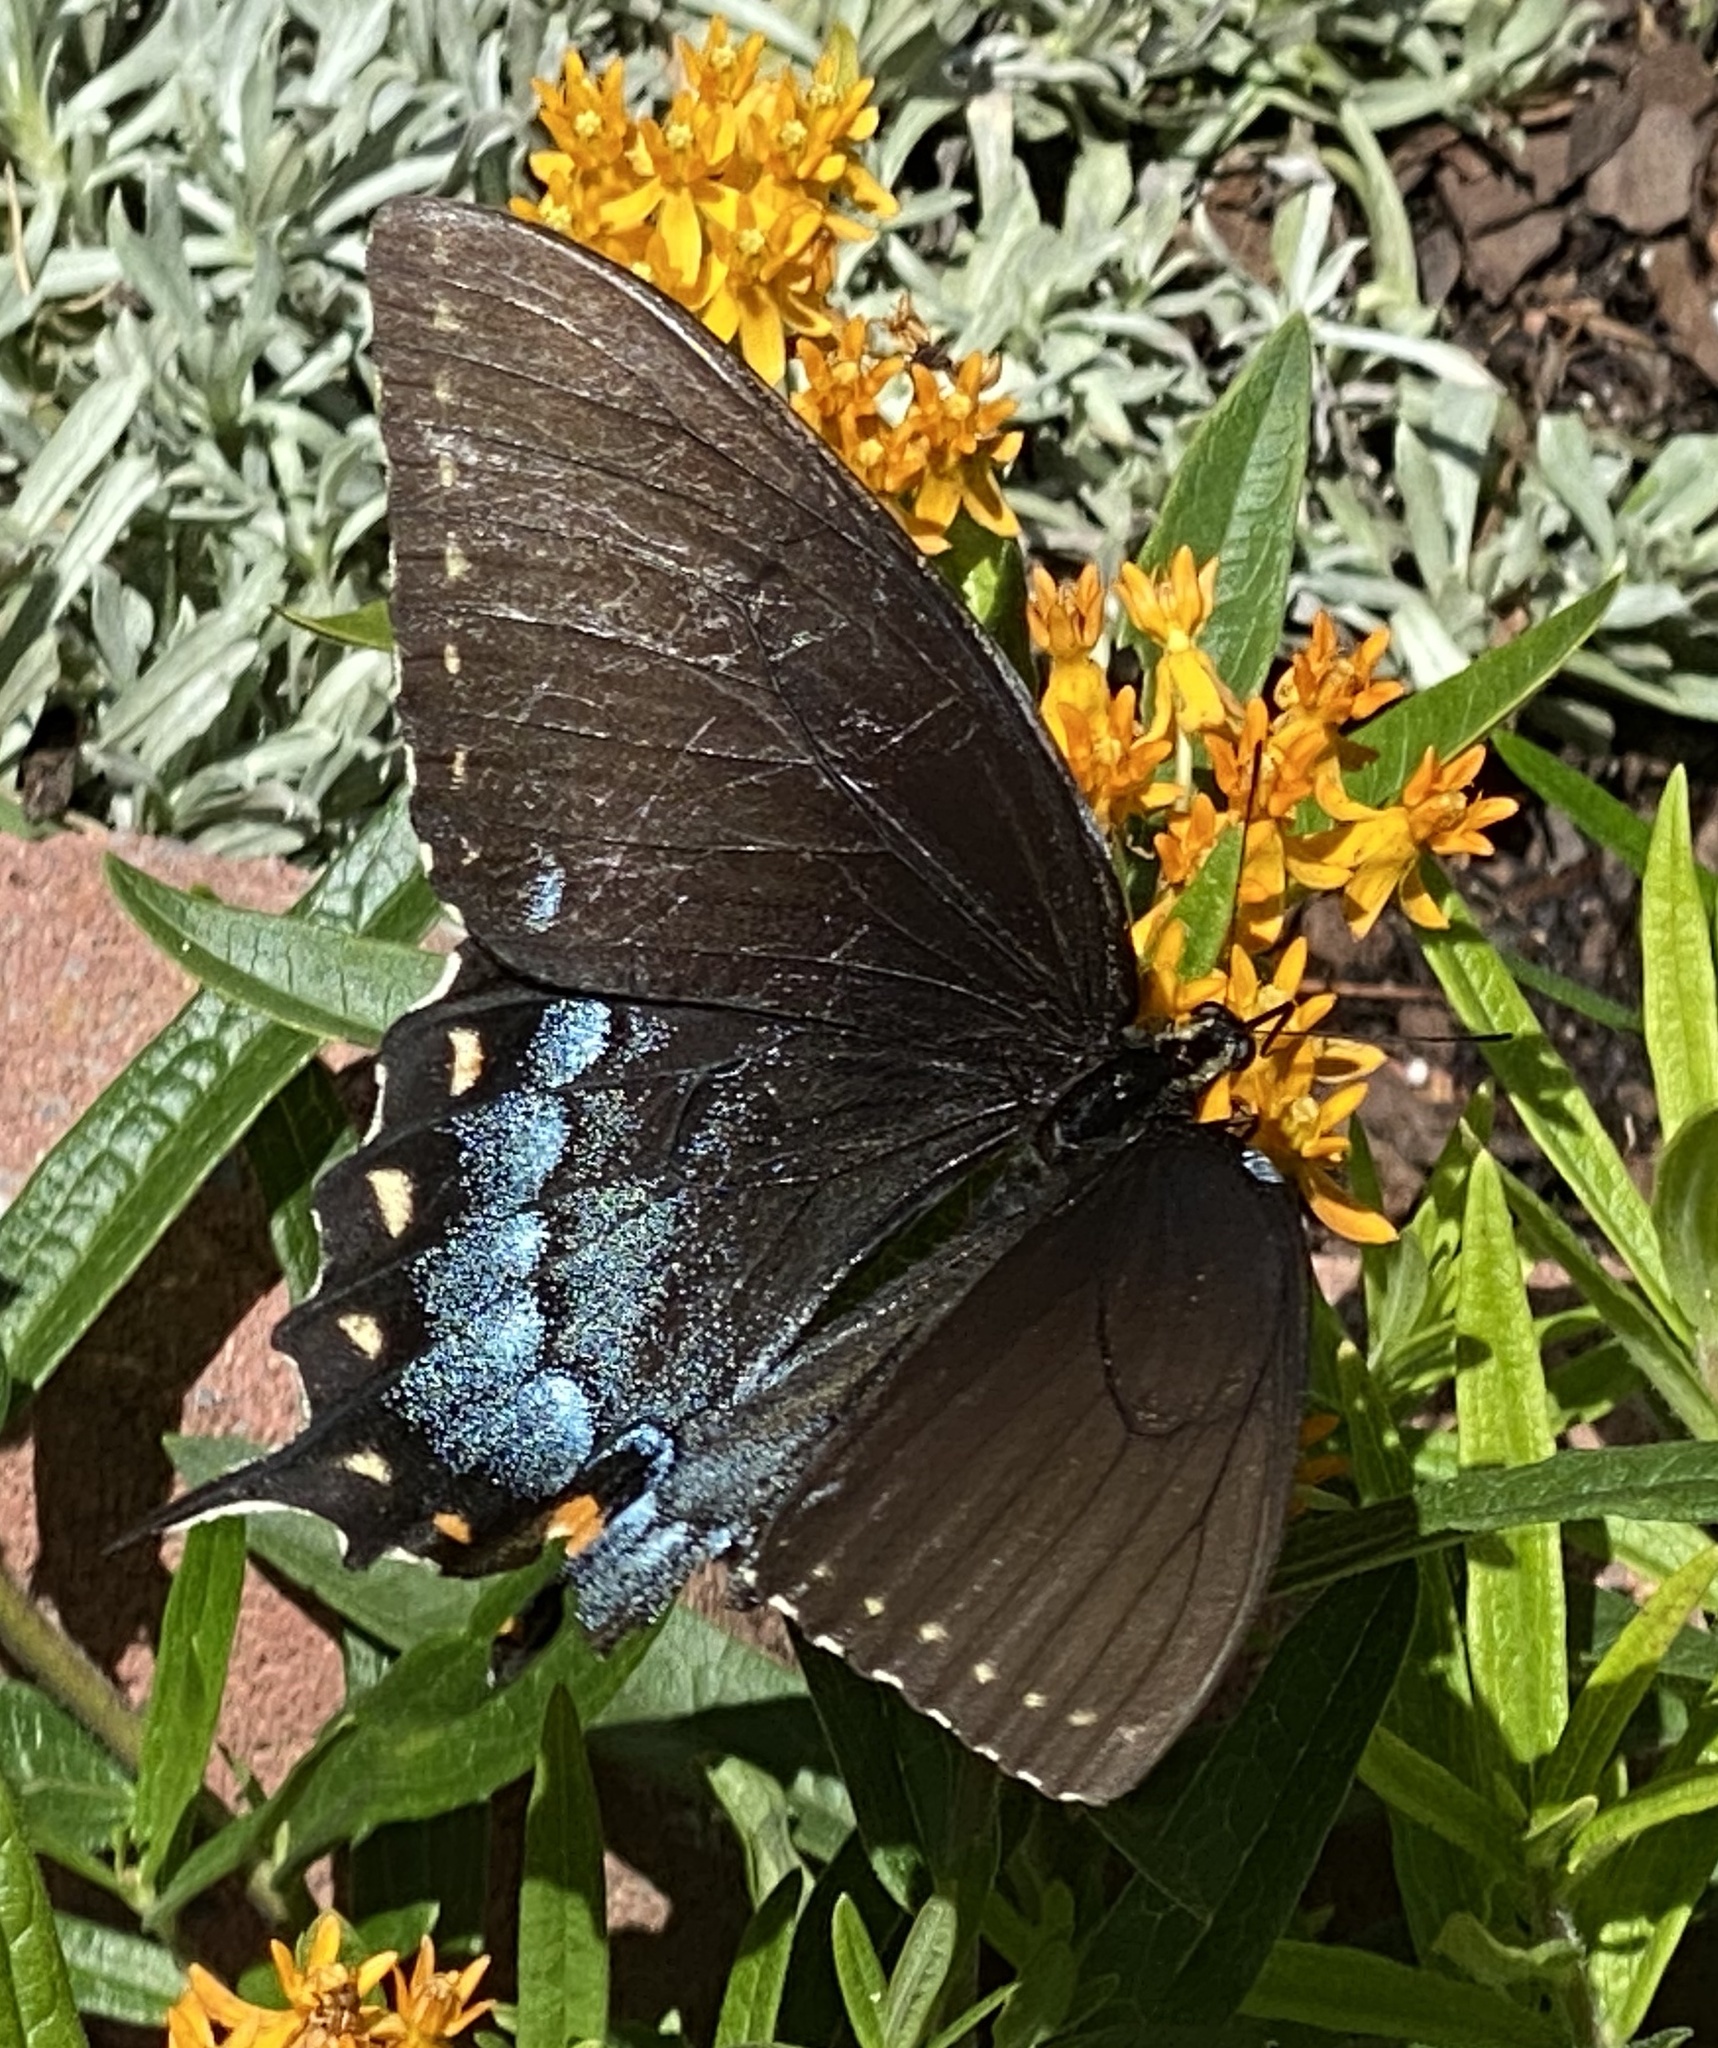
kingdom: Animalia
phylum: Arthropoda
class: Insecta
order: Lepidoptera
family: Papilionidae
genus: Papilio
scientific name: Papilio glaucus
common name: Tiger swallowtail
